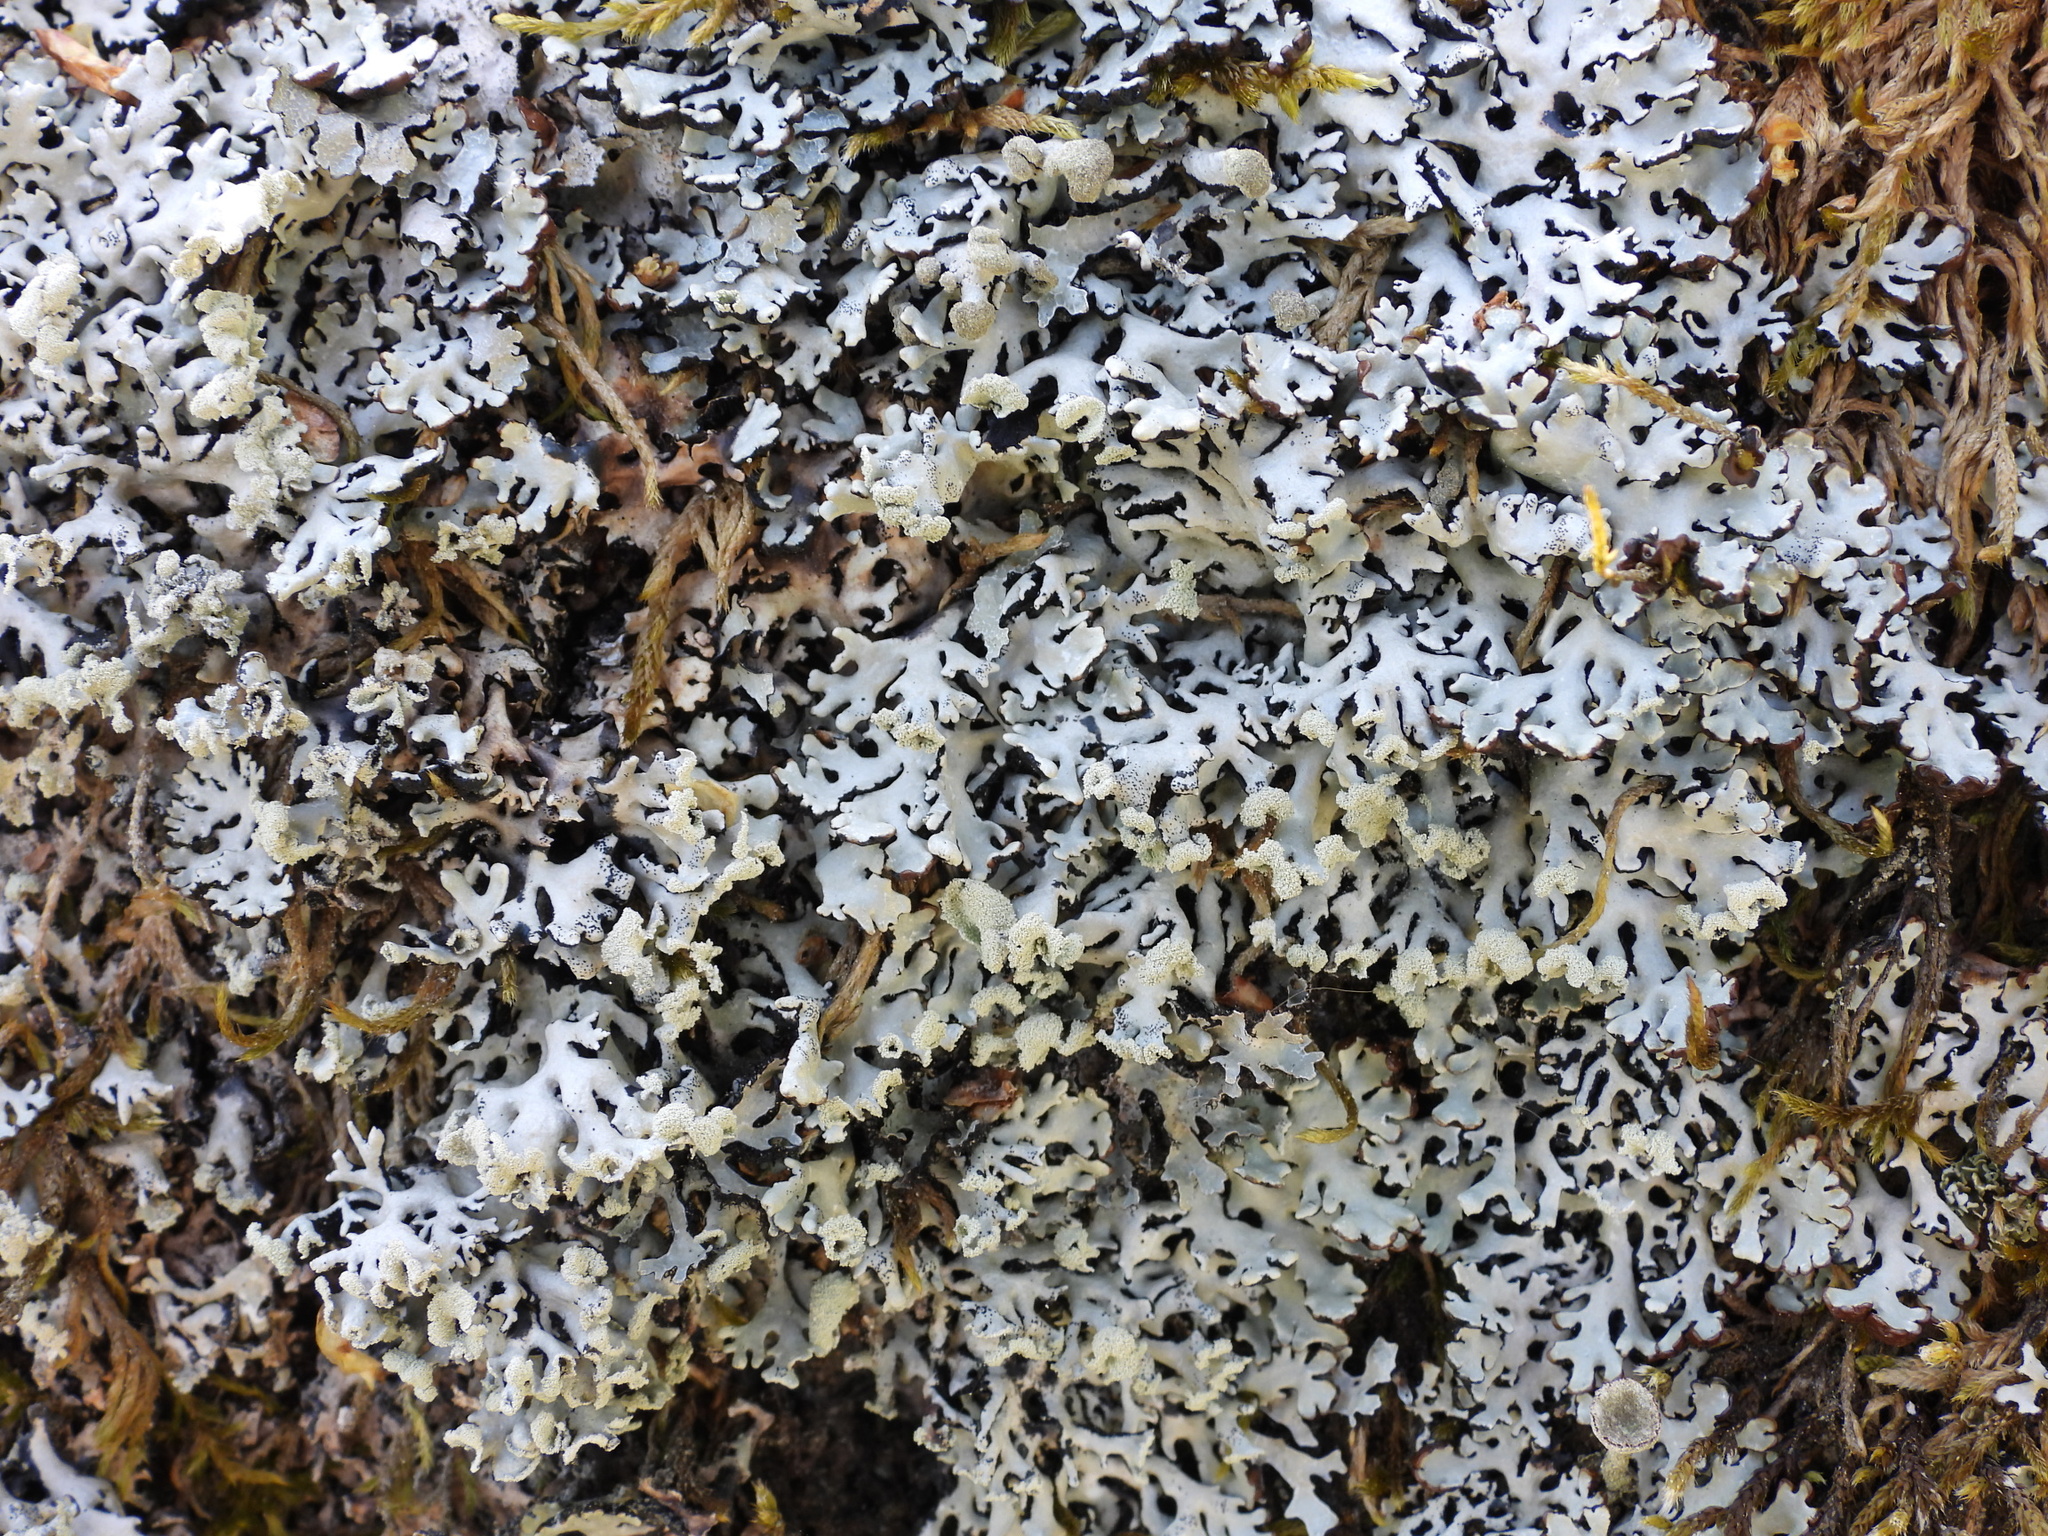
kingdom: Fungi
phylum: Ascomycota
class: Lecanoromycetes
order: Lecanorales
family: Parmeliaceae
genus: Hypogymnia
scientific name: Hypogymnia physodes
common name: Dark crottle
